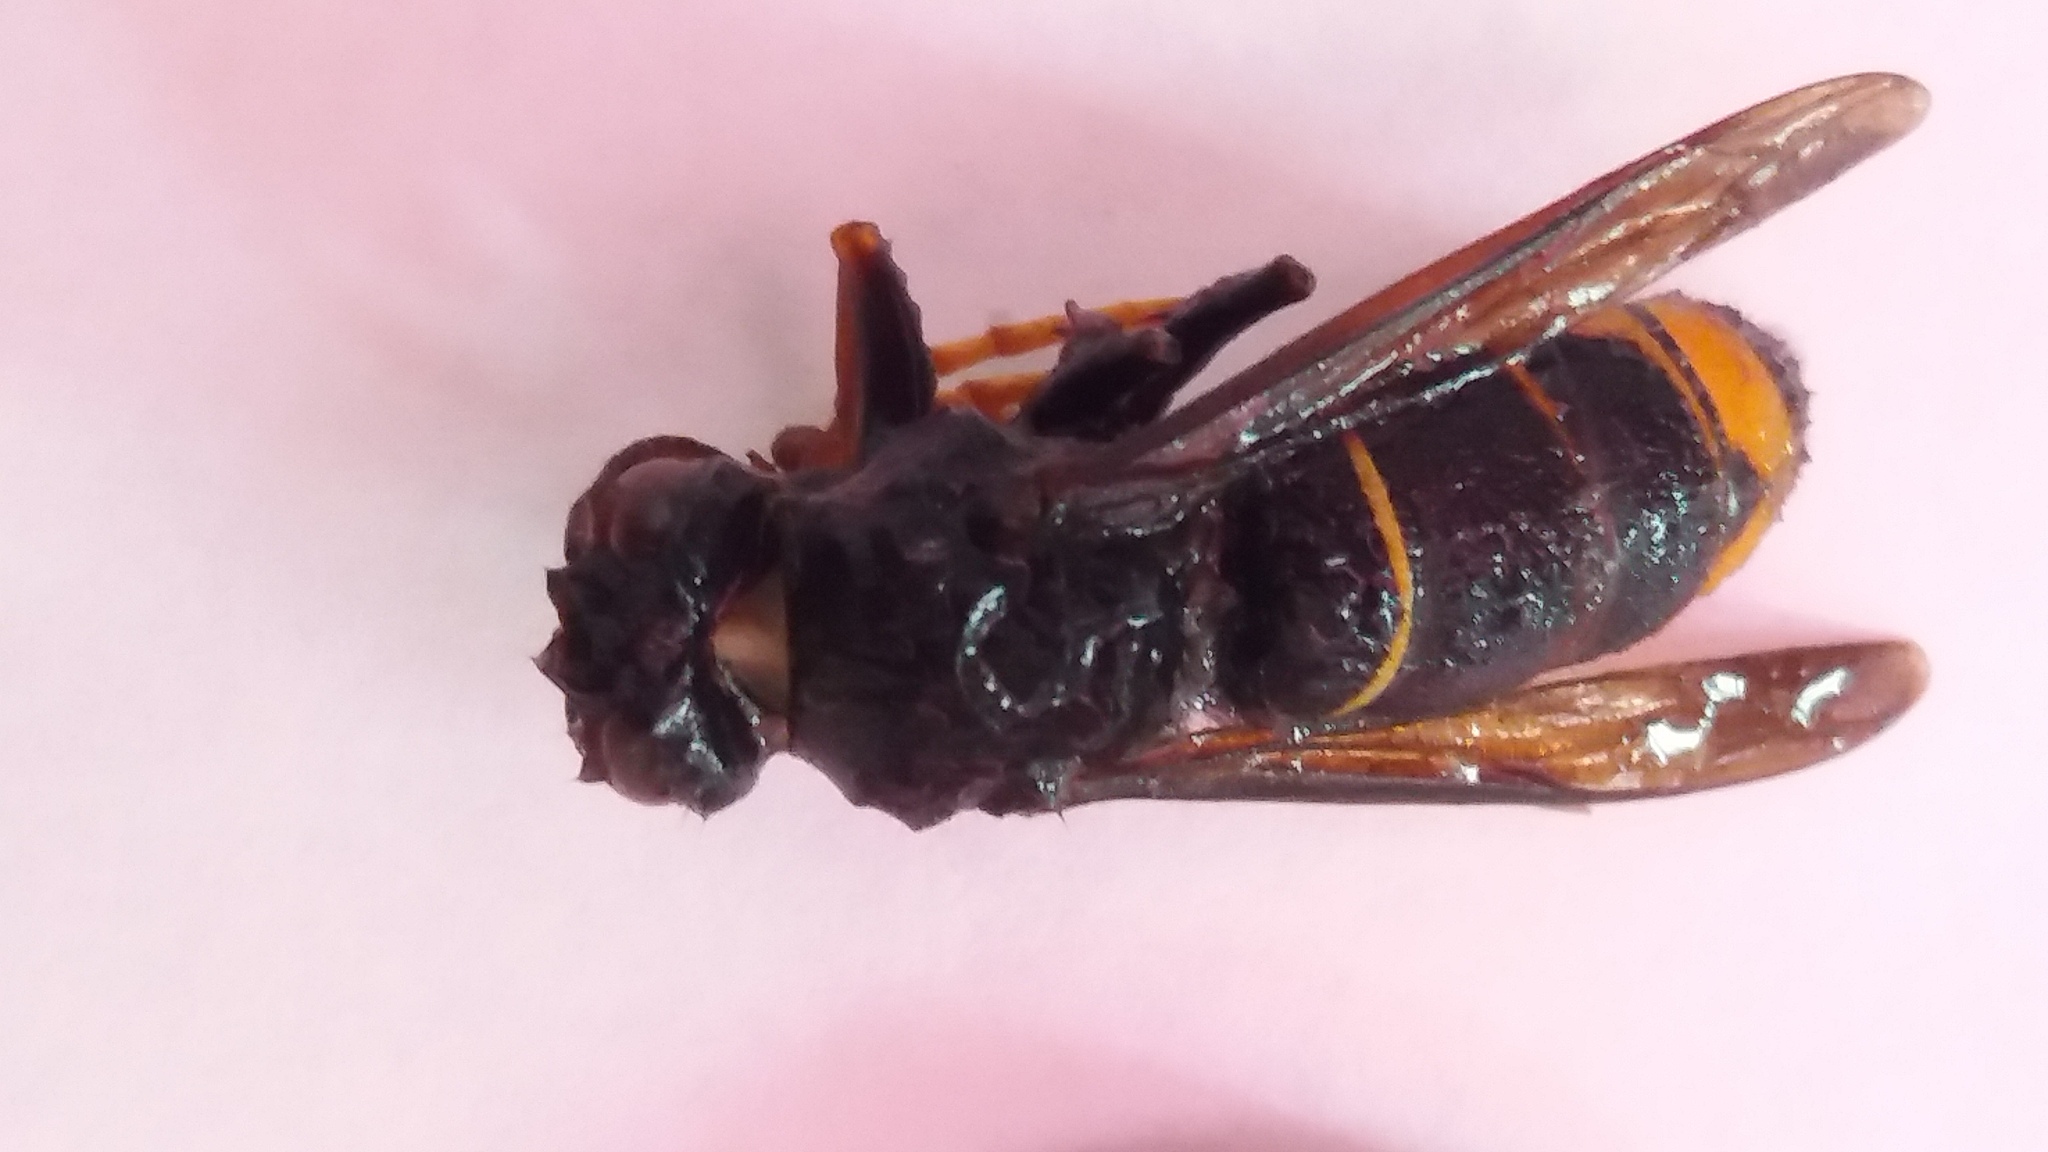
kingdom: Animalia
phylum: Arthropoda
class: Insecta
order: Hymenoptera
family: Vespidae
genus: Vespa
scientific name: Vespa velutina
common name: Asian hornet
